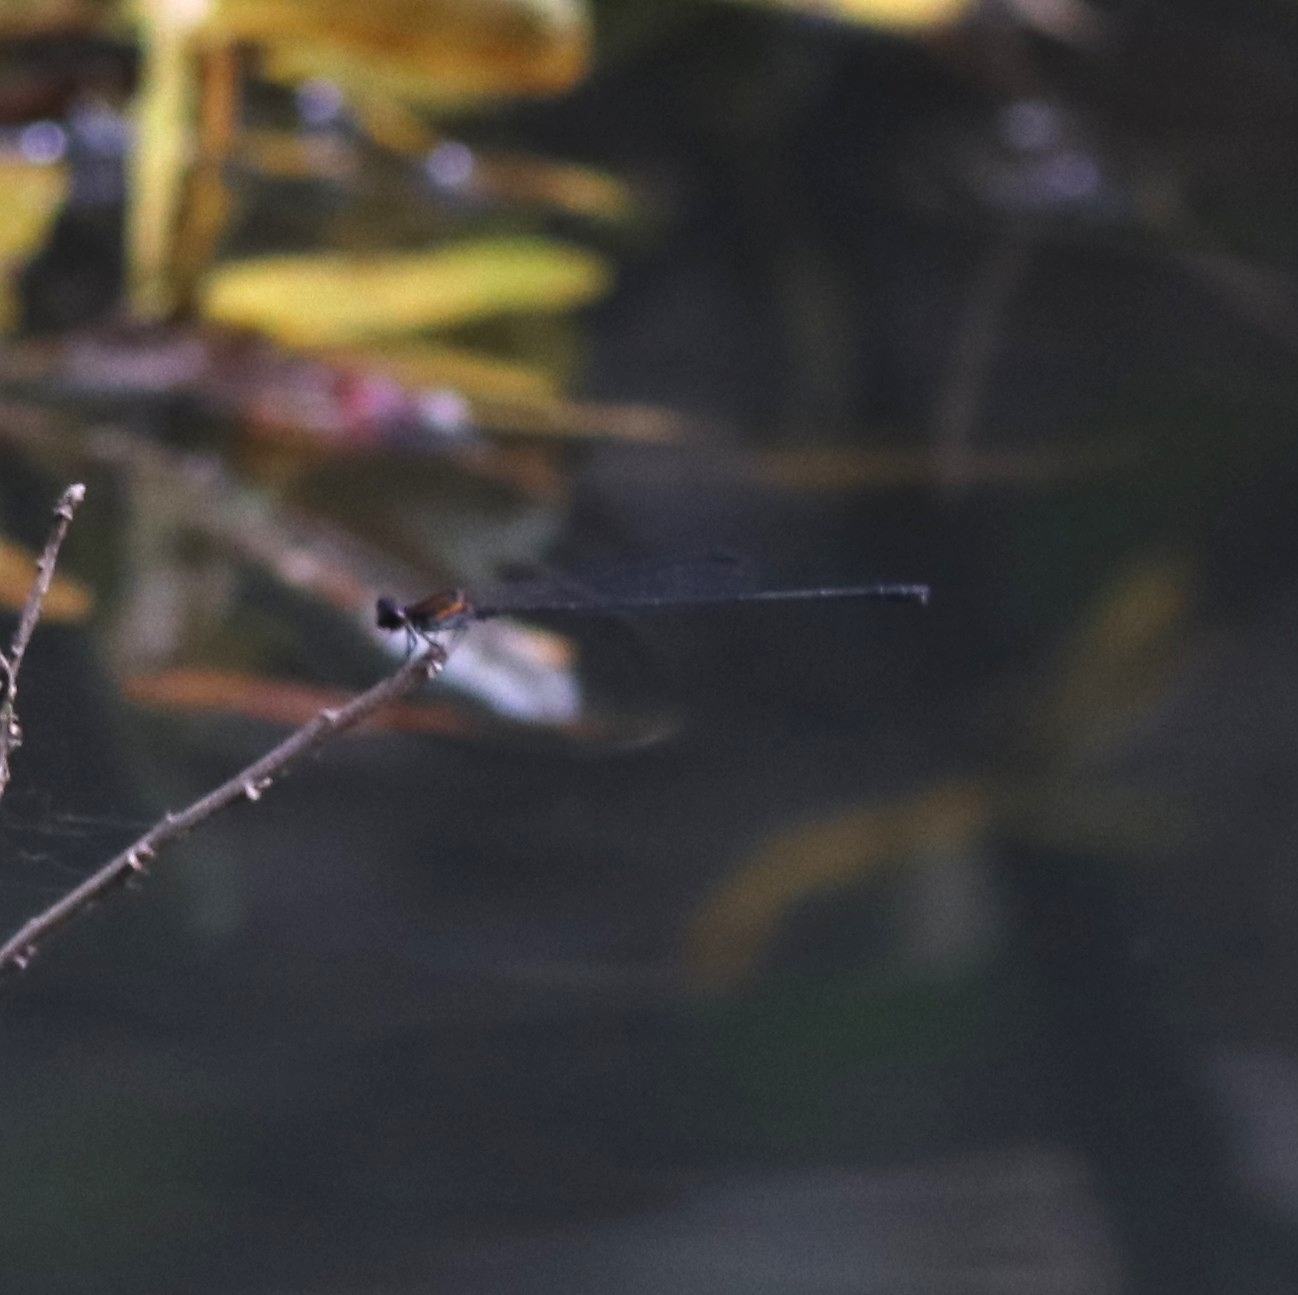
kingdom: Animalia
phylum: Arthropoda
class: Insecta
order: Odonata
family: Platycnemididae
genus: Prodasineura
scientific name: Prodasineura verticalis
